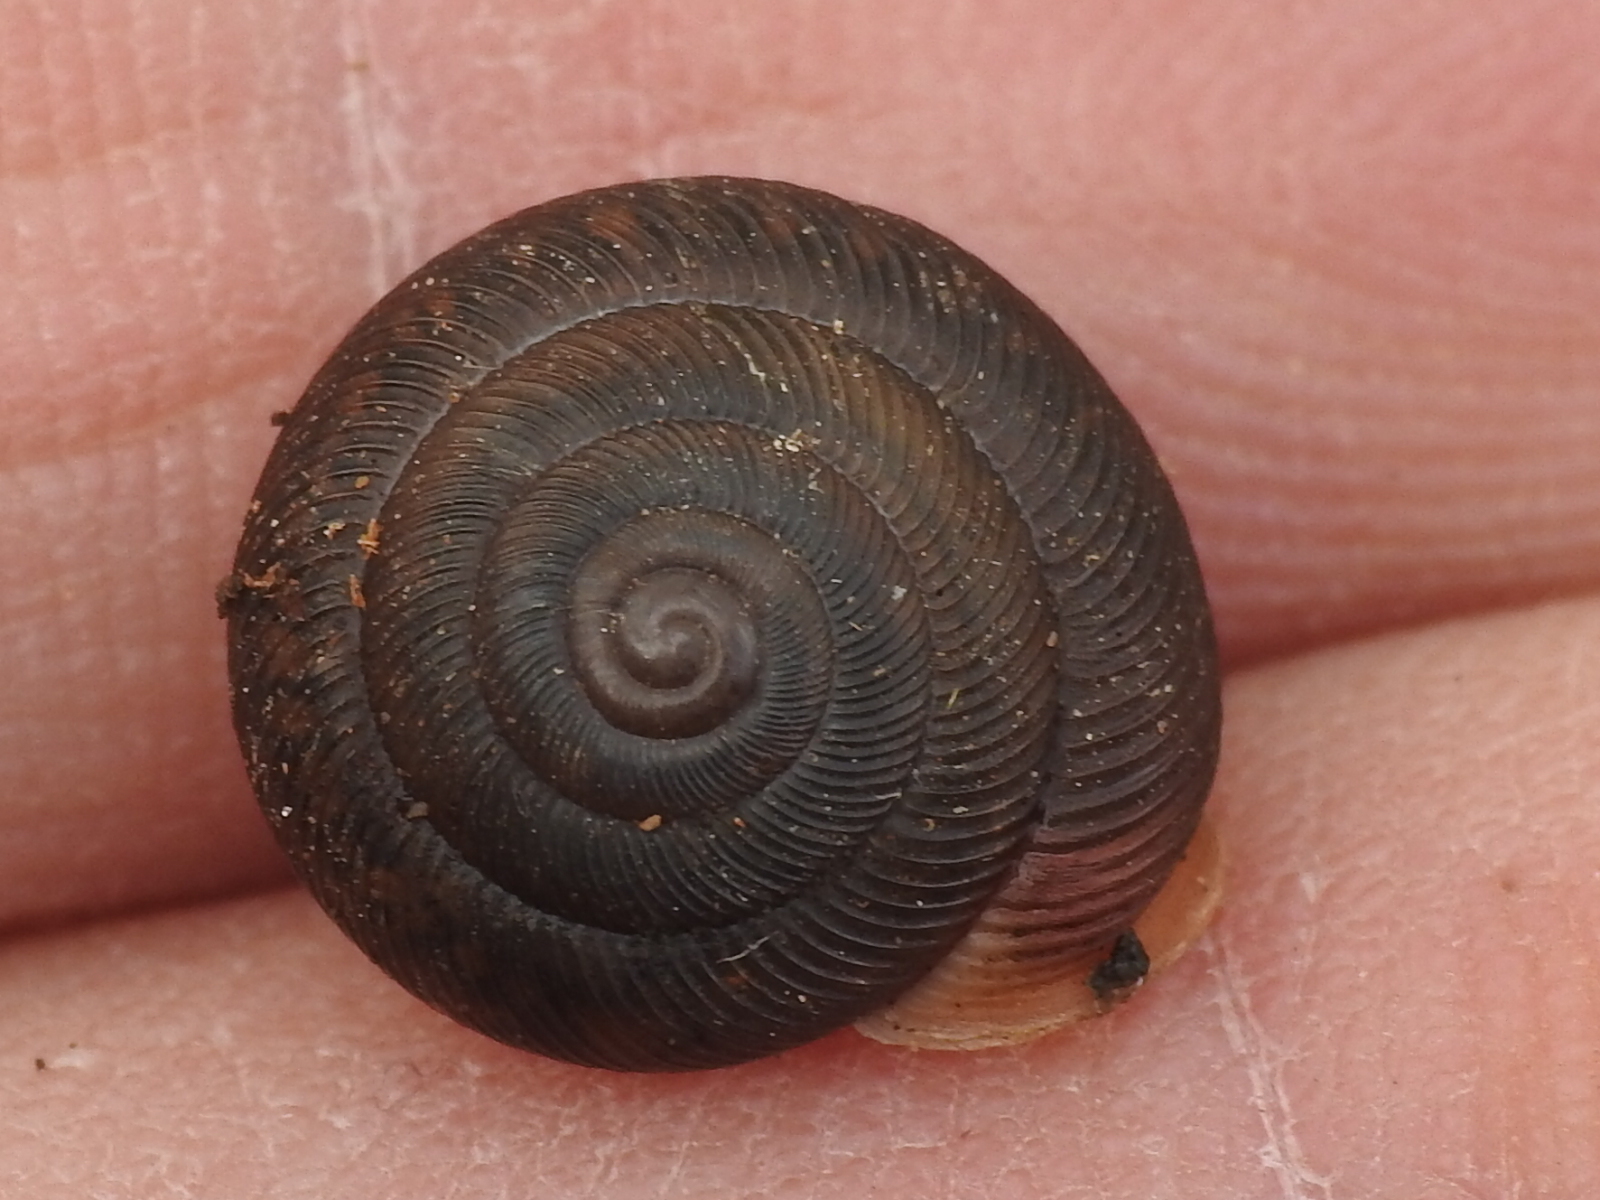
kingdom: Animalia
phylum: Mollusca
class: Gastropoda
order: Stylommatophora
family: Polygyridae
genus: Triodopsis
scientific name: Triodopsis hopetonensis
